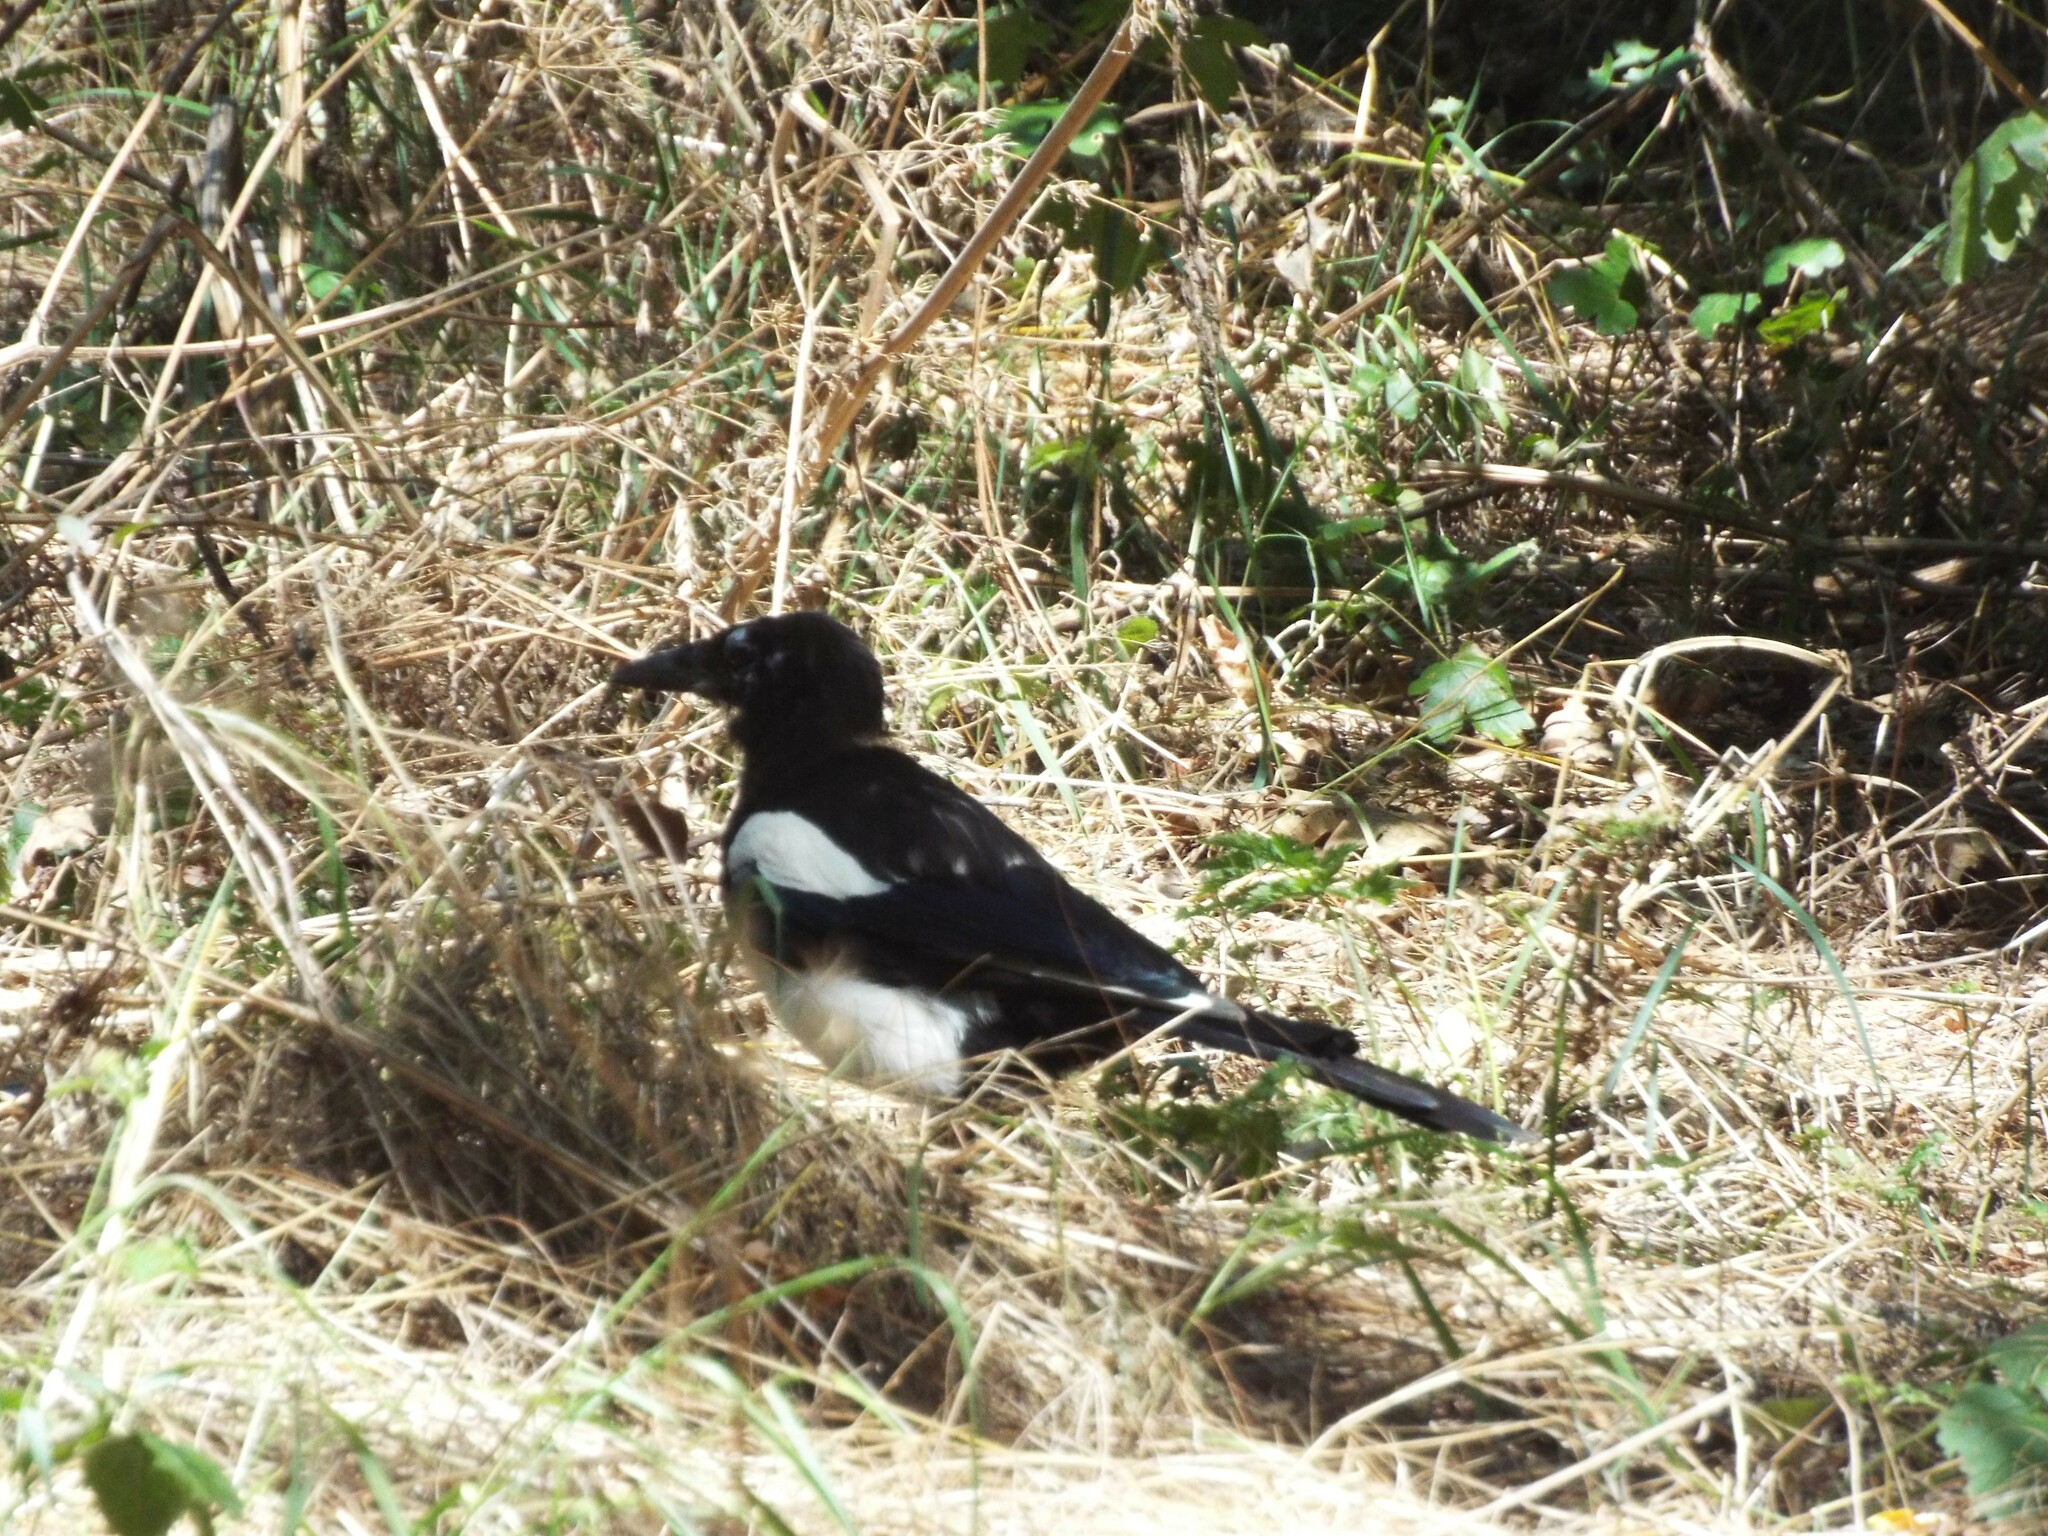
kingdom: Animalia
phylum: Chordata
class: Aves
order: Passeriformes
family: Corvidae
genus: Pica
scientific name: Pica pica
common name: Eurasian magpie
